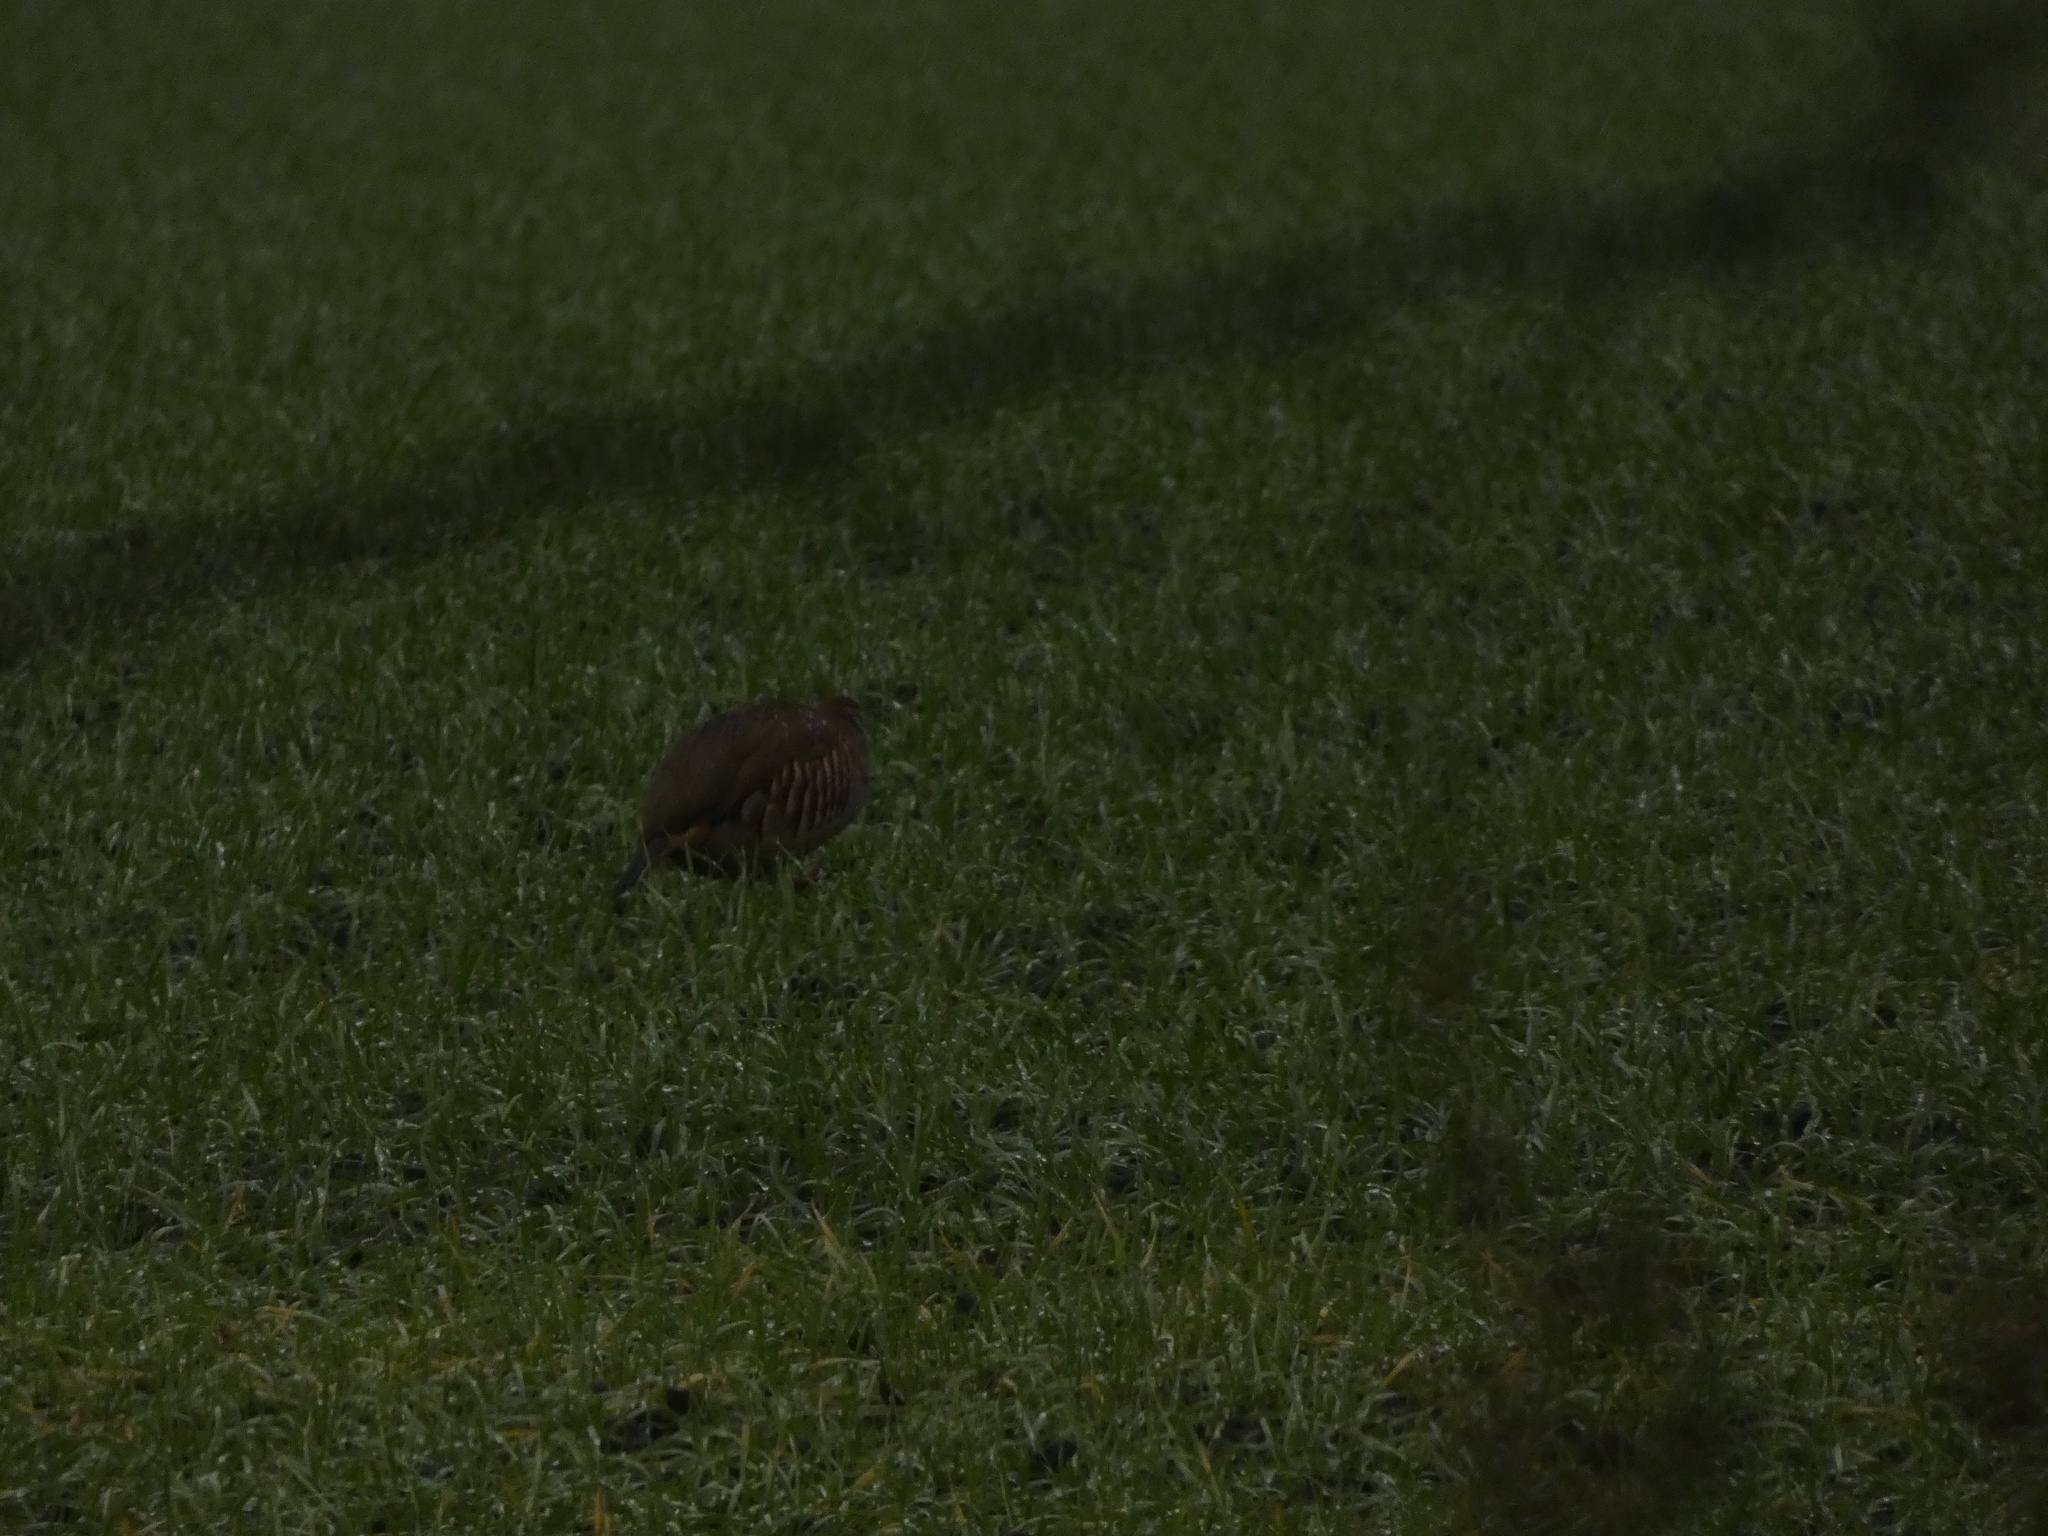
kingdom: Animalia
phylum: Chordata
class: Aves
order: Galliformes
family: Phasianidae
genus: Alectoris
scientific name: Alectoris rufa
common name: Red-legged partridge
